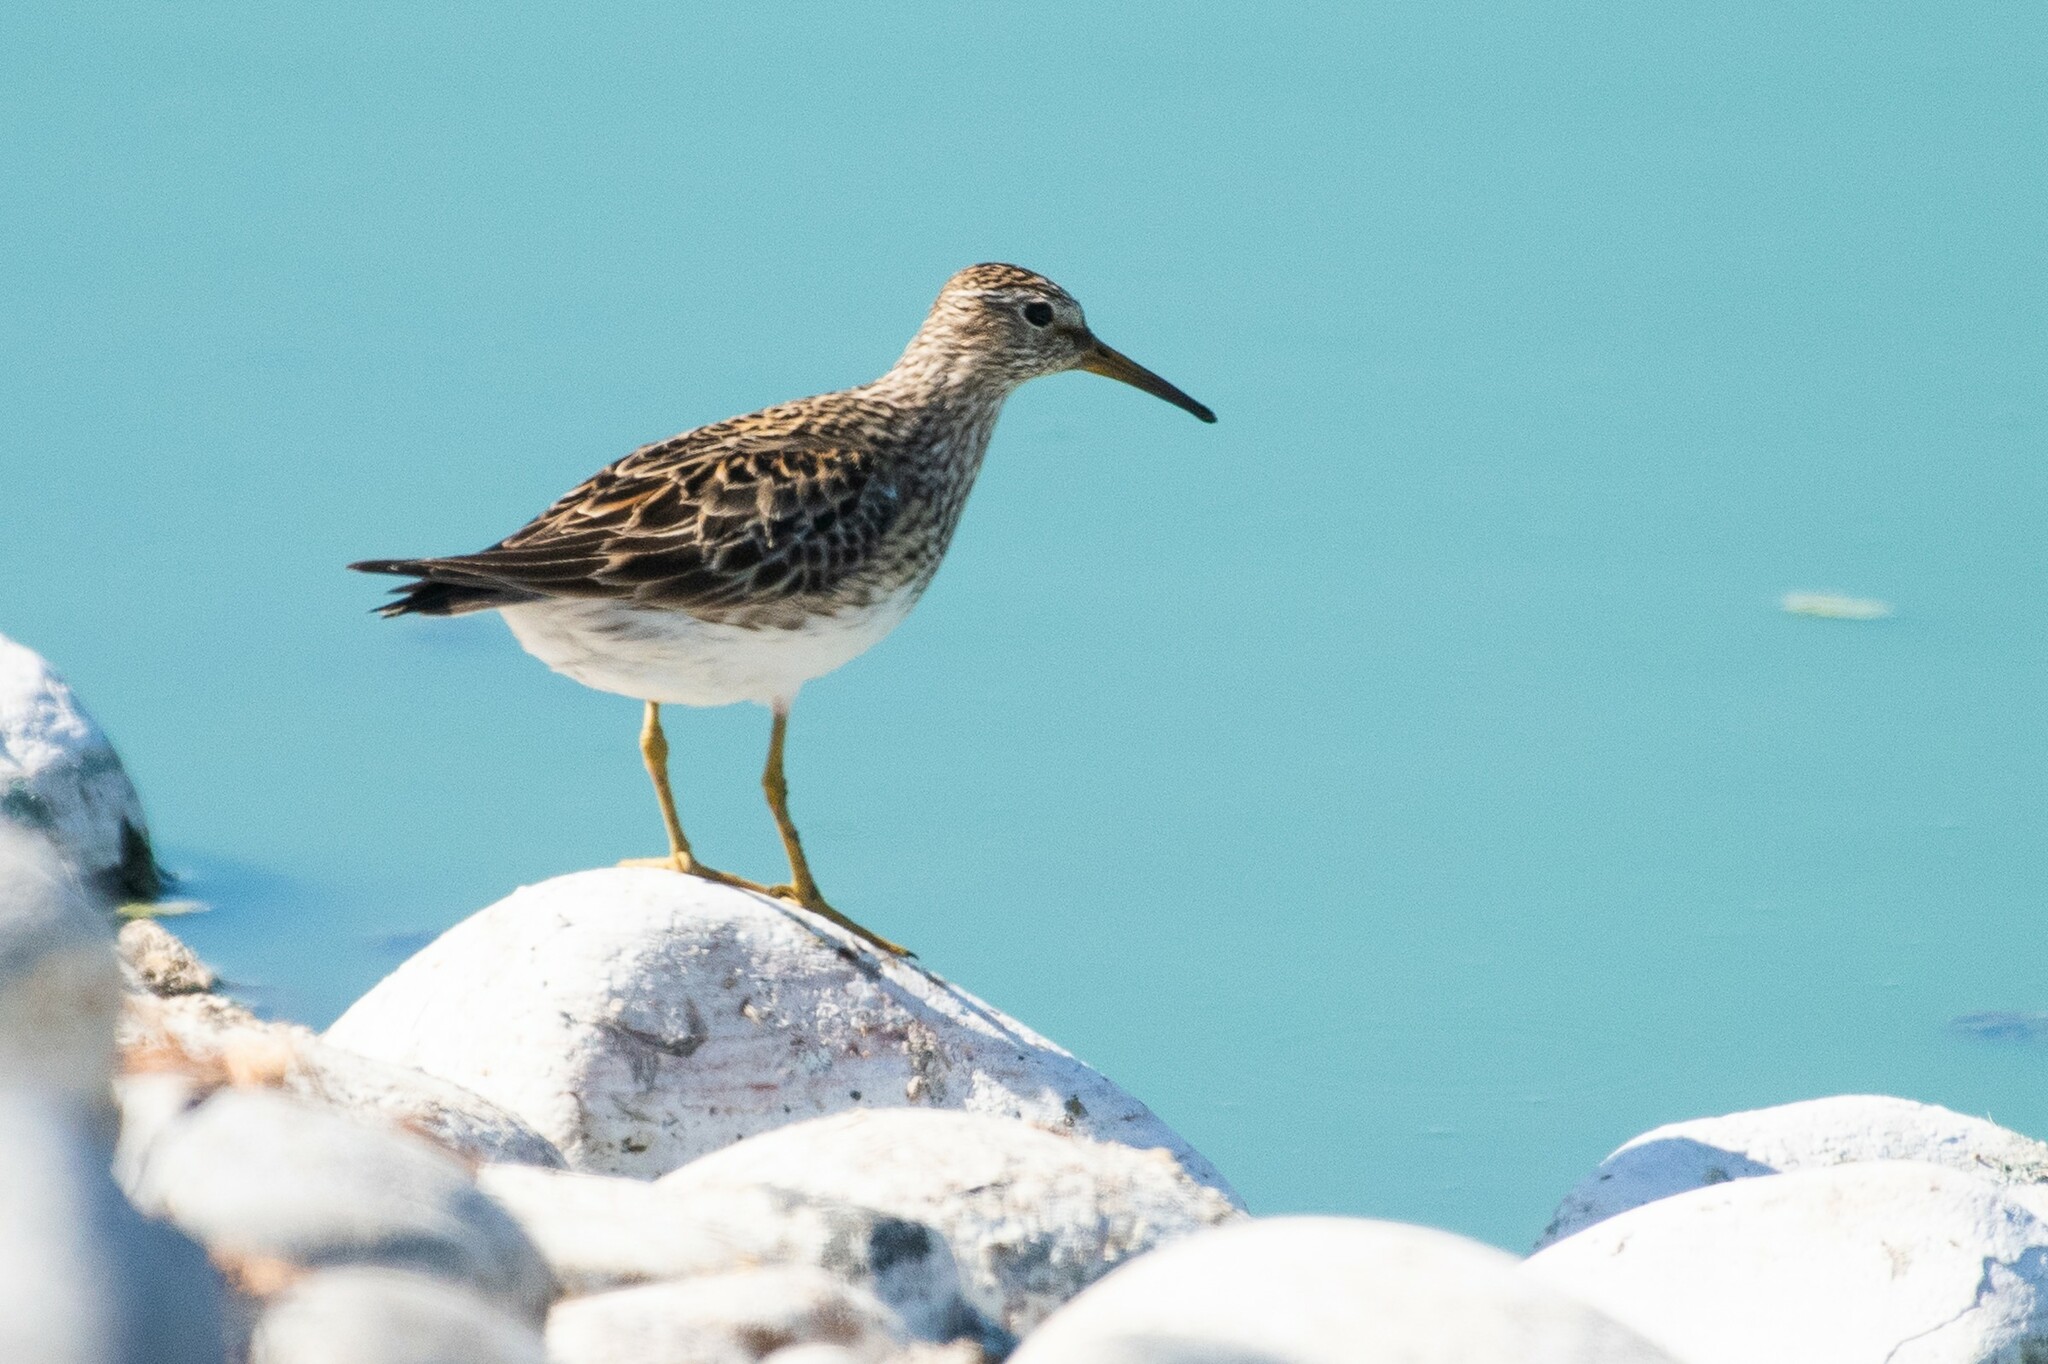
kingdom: Animalia
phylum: Chordata
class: Aves
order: Charadriiformes
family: Scolopacidae
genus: Calidris
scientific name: Calidris melanotos
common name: Pectoral sandpiper
